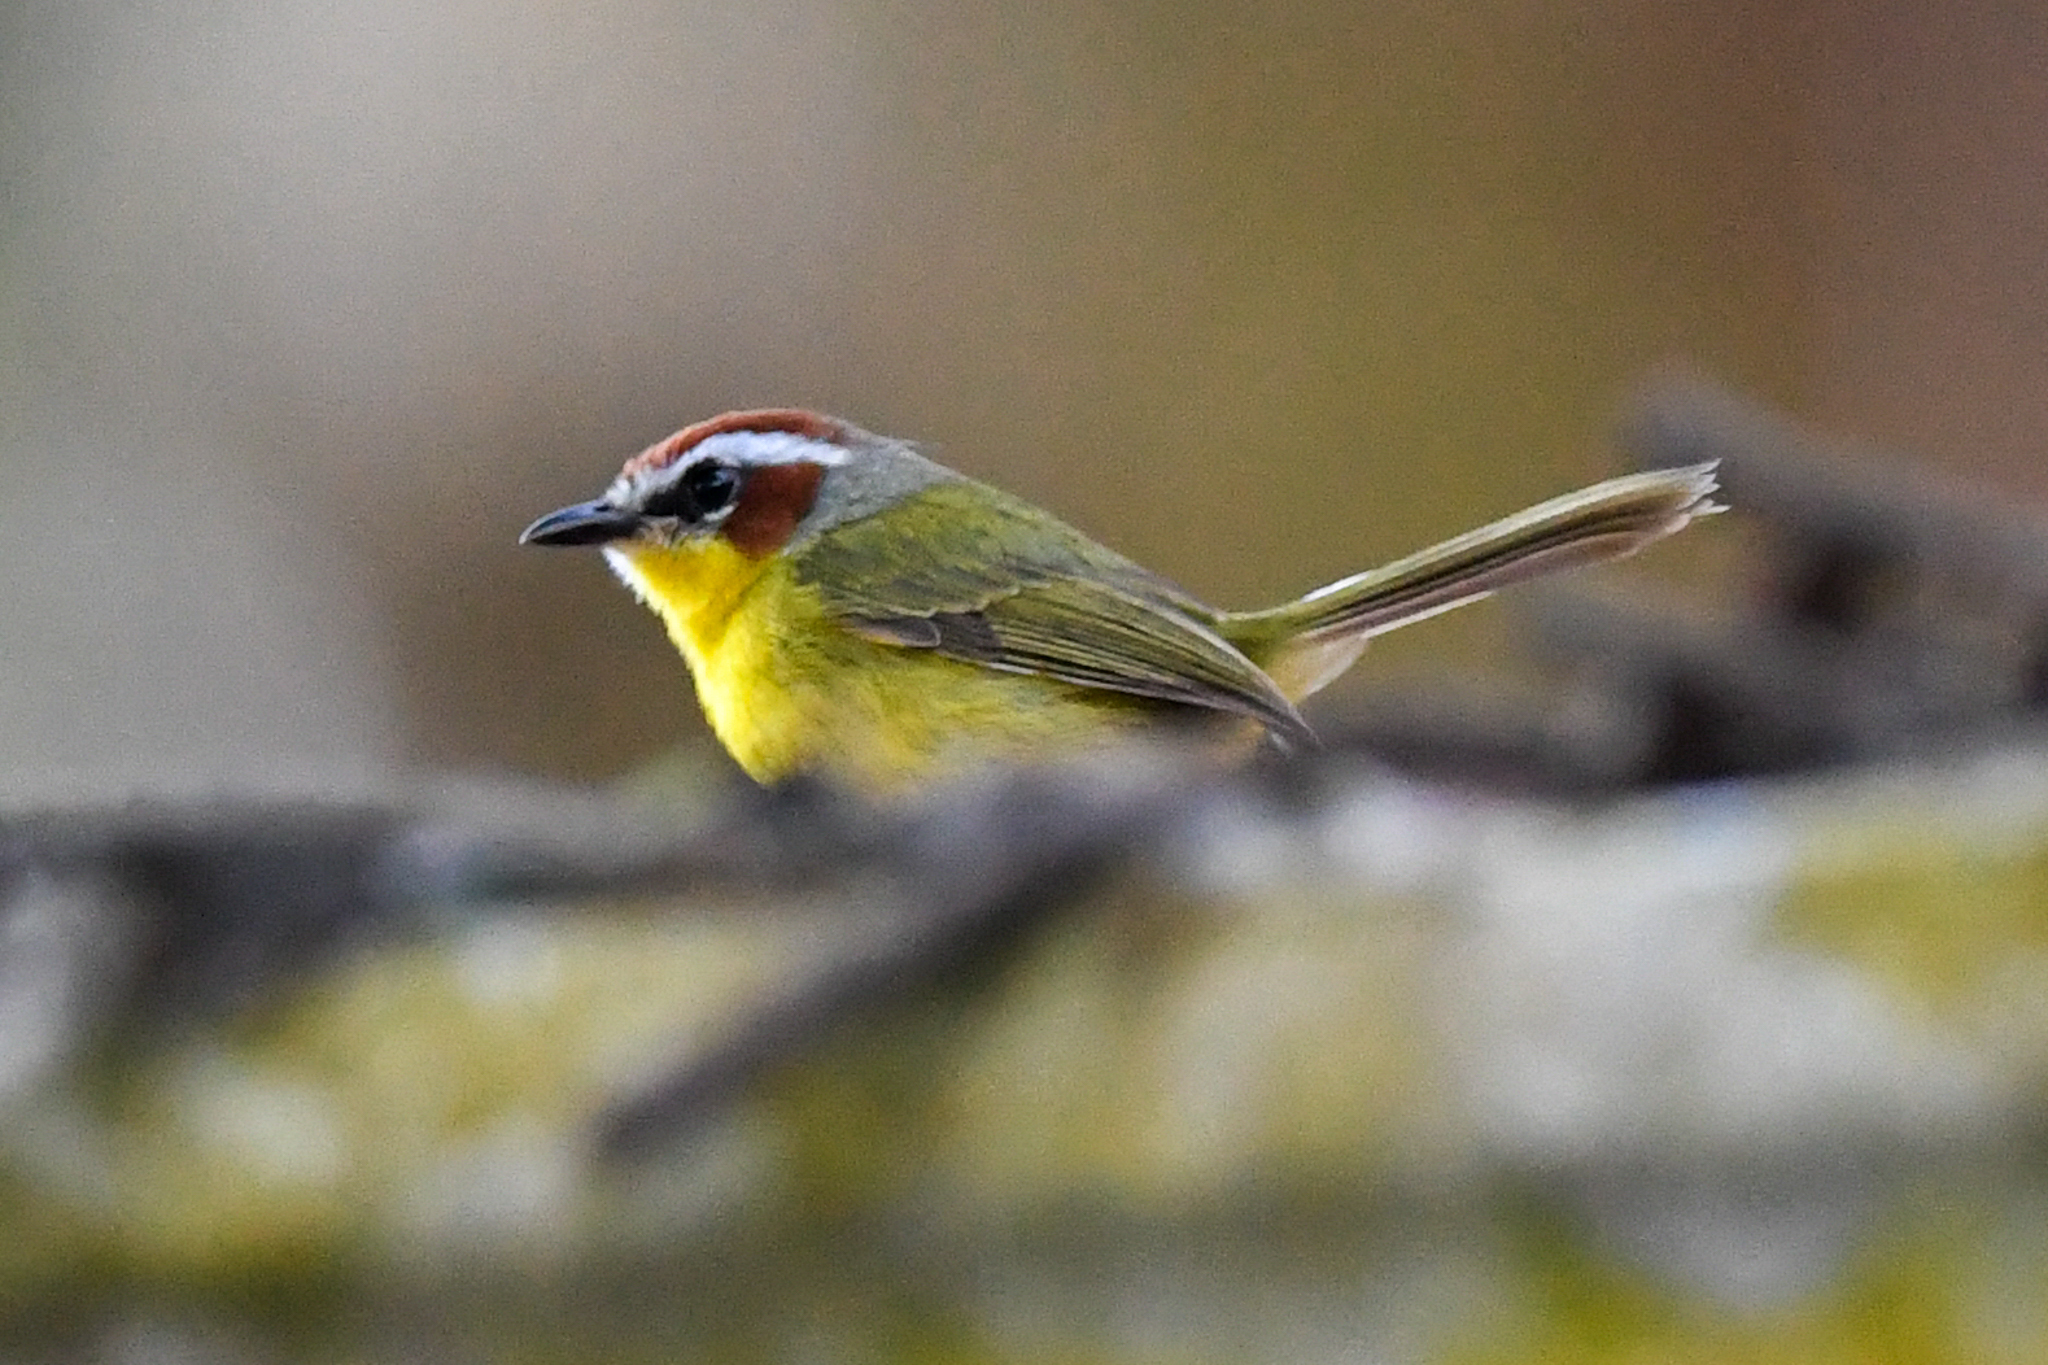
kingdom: Animalia
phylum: Chordata
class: Aves
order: Passeriformes
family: Parulidae
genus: Basileuterus
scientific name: Basileuterus rufifrons
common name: Rufous-capped warbler
